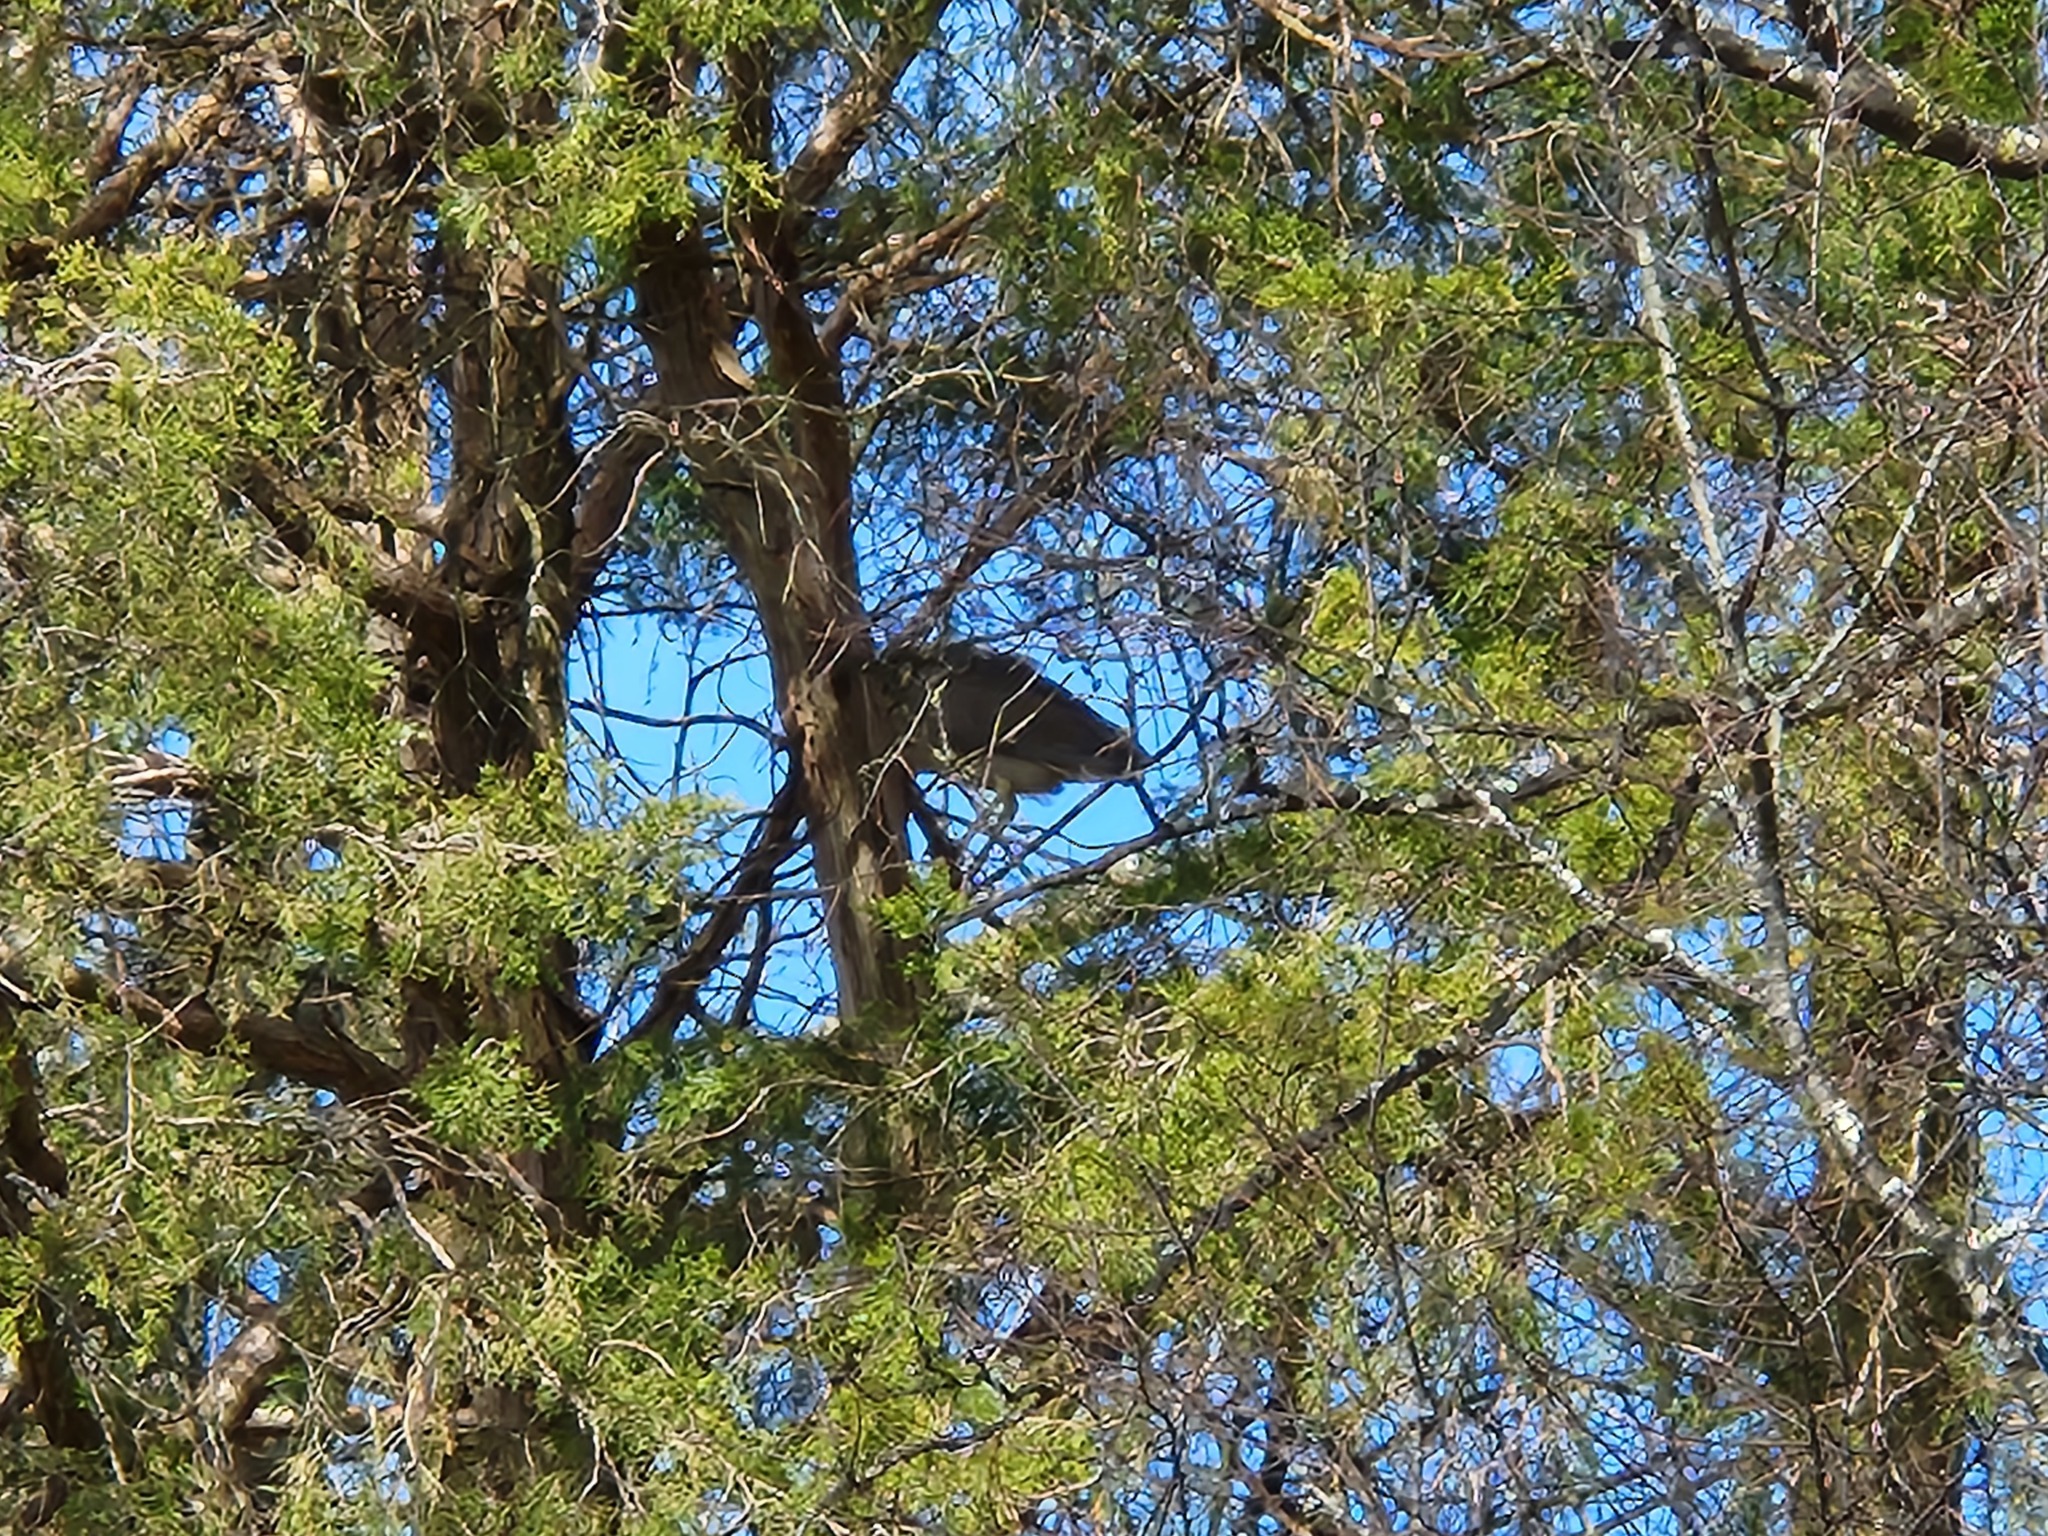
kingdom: Animalia
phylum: Chordata
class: Aves
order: Pelecaniformes
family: Ardeidae
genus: Nycticorax
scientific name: Nycticorax nycticorax
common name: Black-crowned night heron
